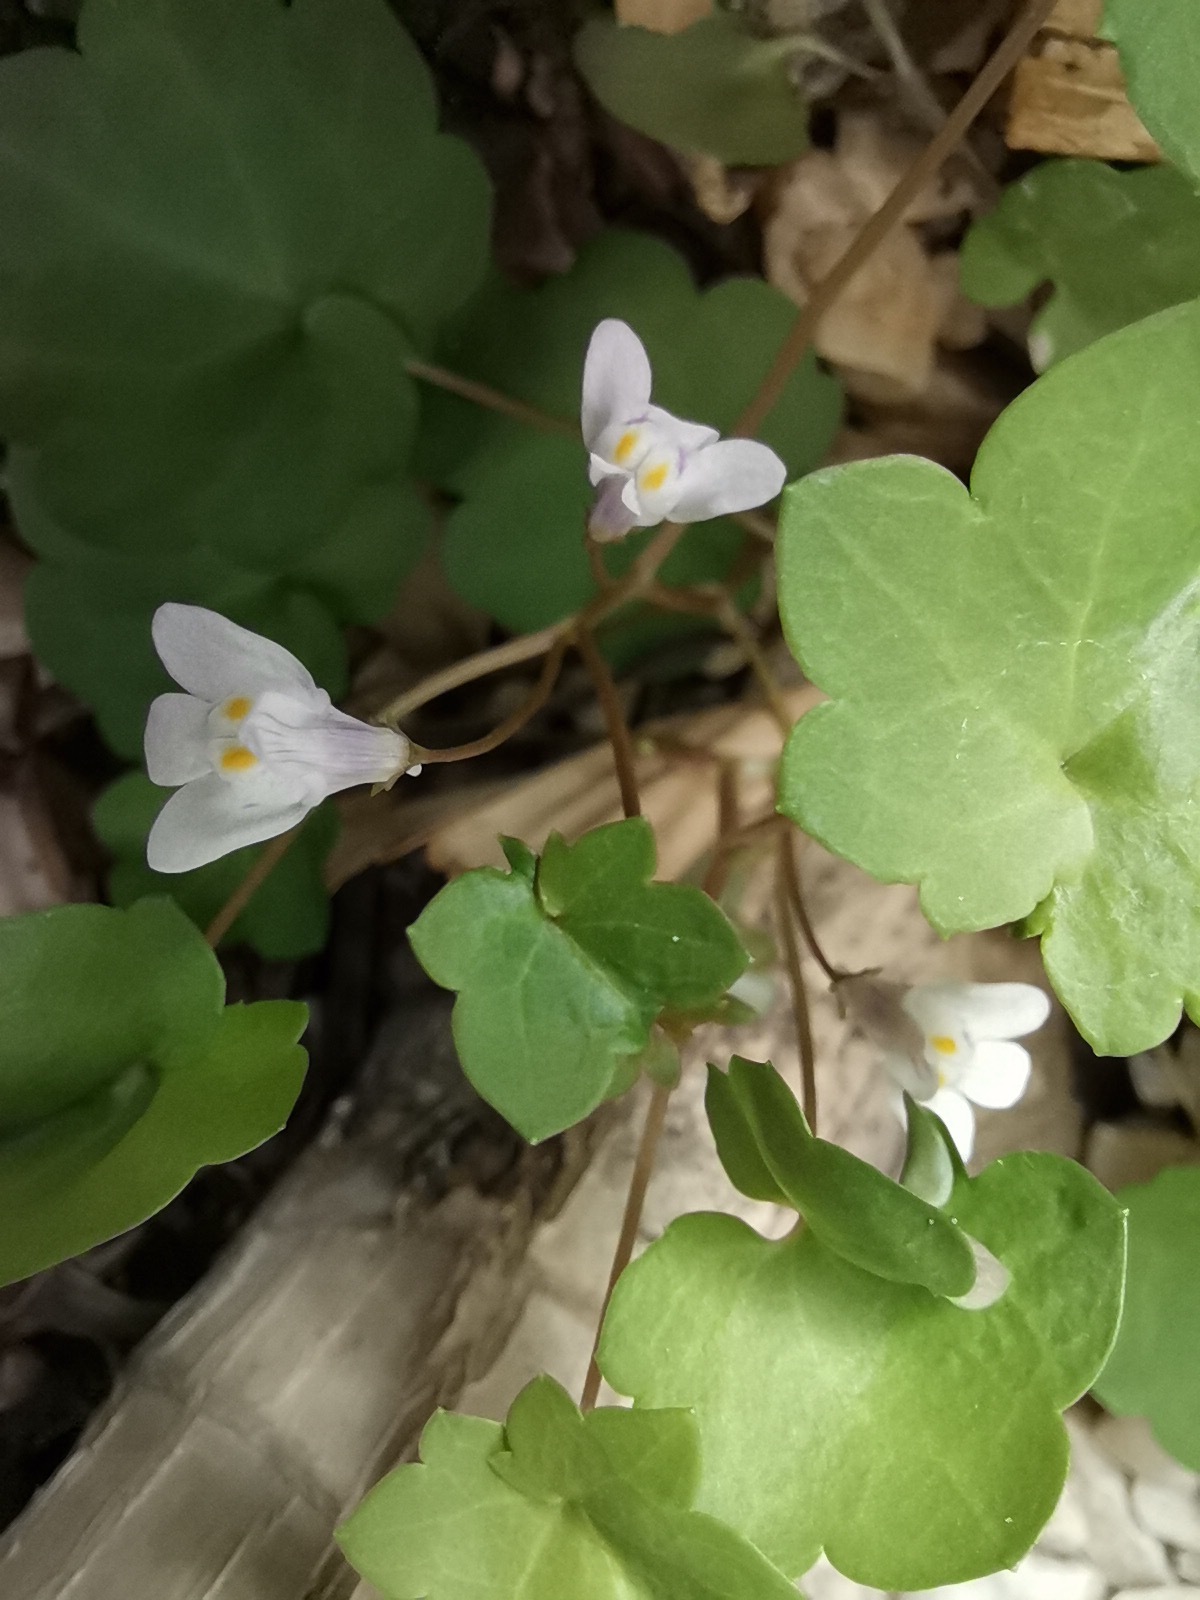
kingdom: Plantae
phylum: Tracheophyta
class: Magnoliopsida
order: Lamiales
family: Plantaginaceae
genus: Cymbalaria
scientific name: Cymbalaria muralis
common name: Ivy-leaved toadflax
